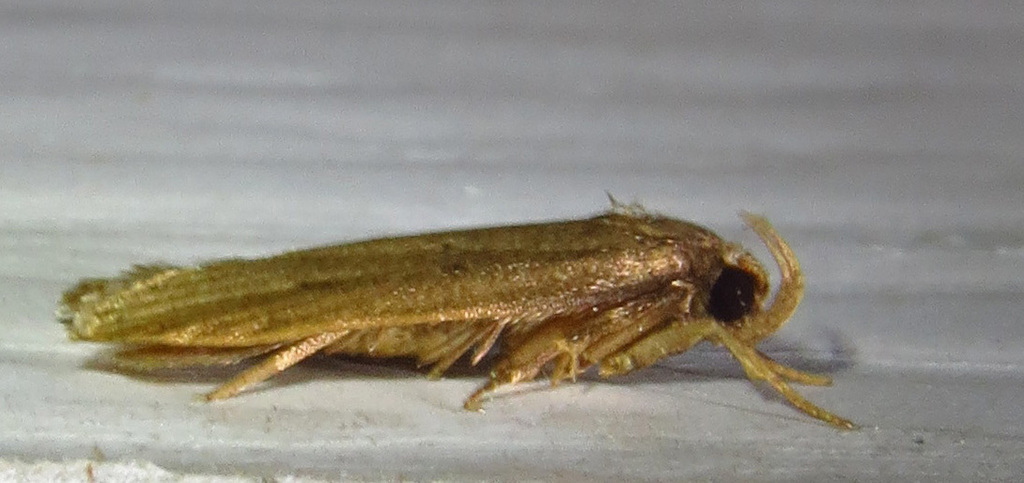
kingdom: Animalia
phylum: Arthropoda
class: Insecta
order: Lepidoptera
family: Autostichidae
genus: Autosticha
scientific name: Autosticha kyotensis
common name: Kyoto moth
